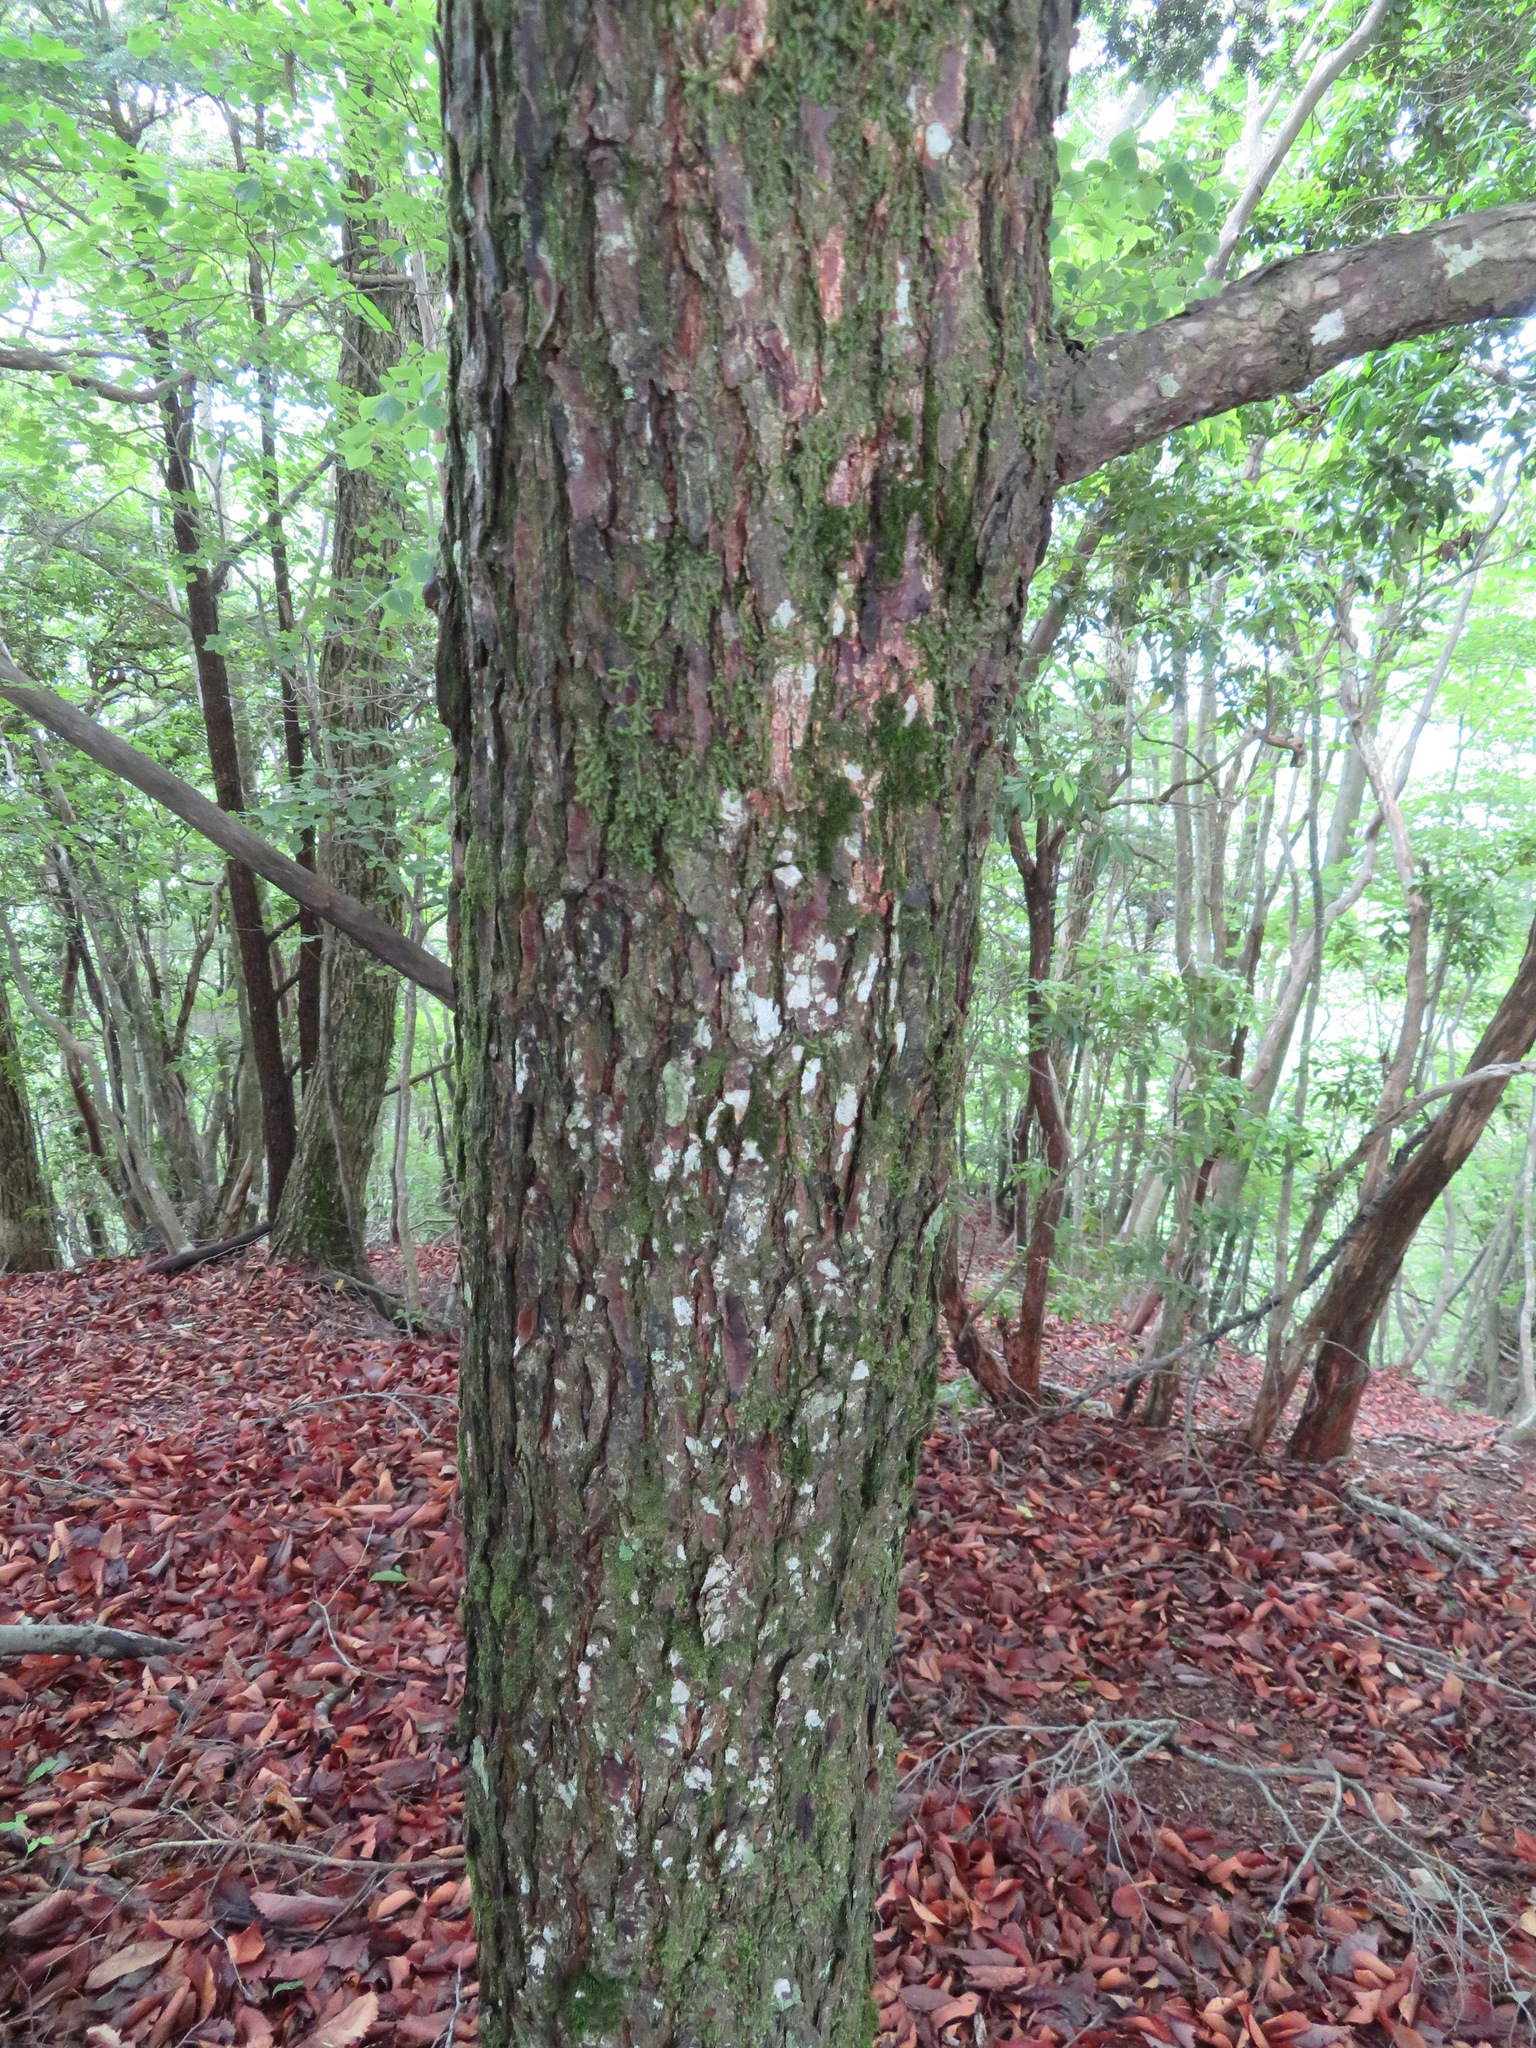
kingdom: Plantae
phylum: Tracheophyta
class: Pinopsida
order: Pinales
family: Pinaceae
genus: Tsuga
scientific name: Tsuga sieboldii
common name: Japanese hemlock
